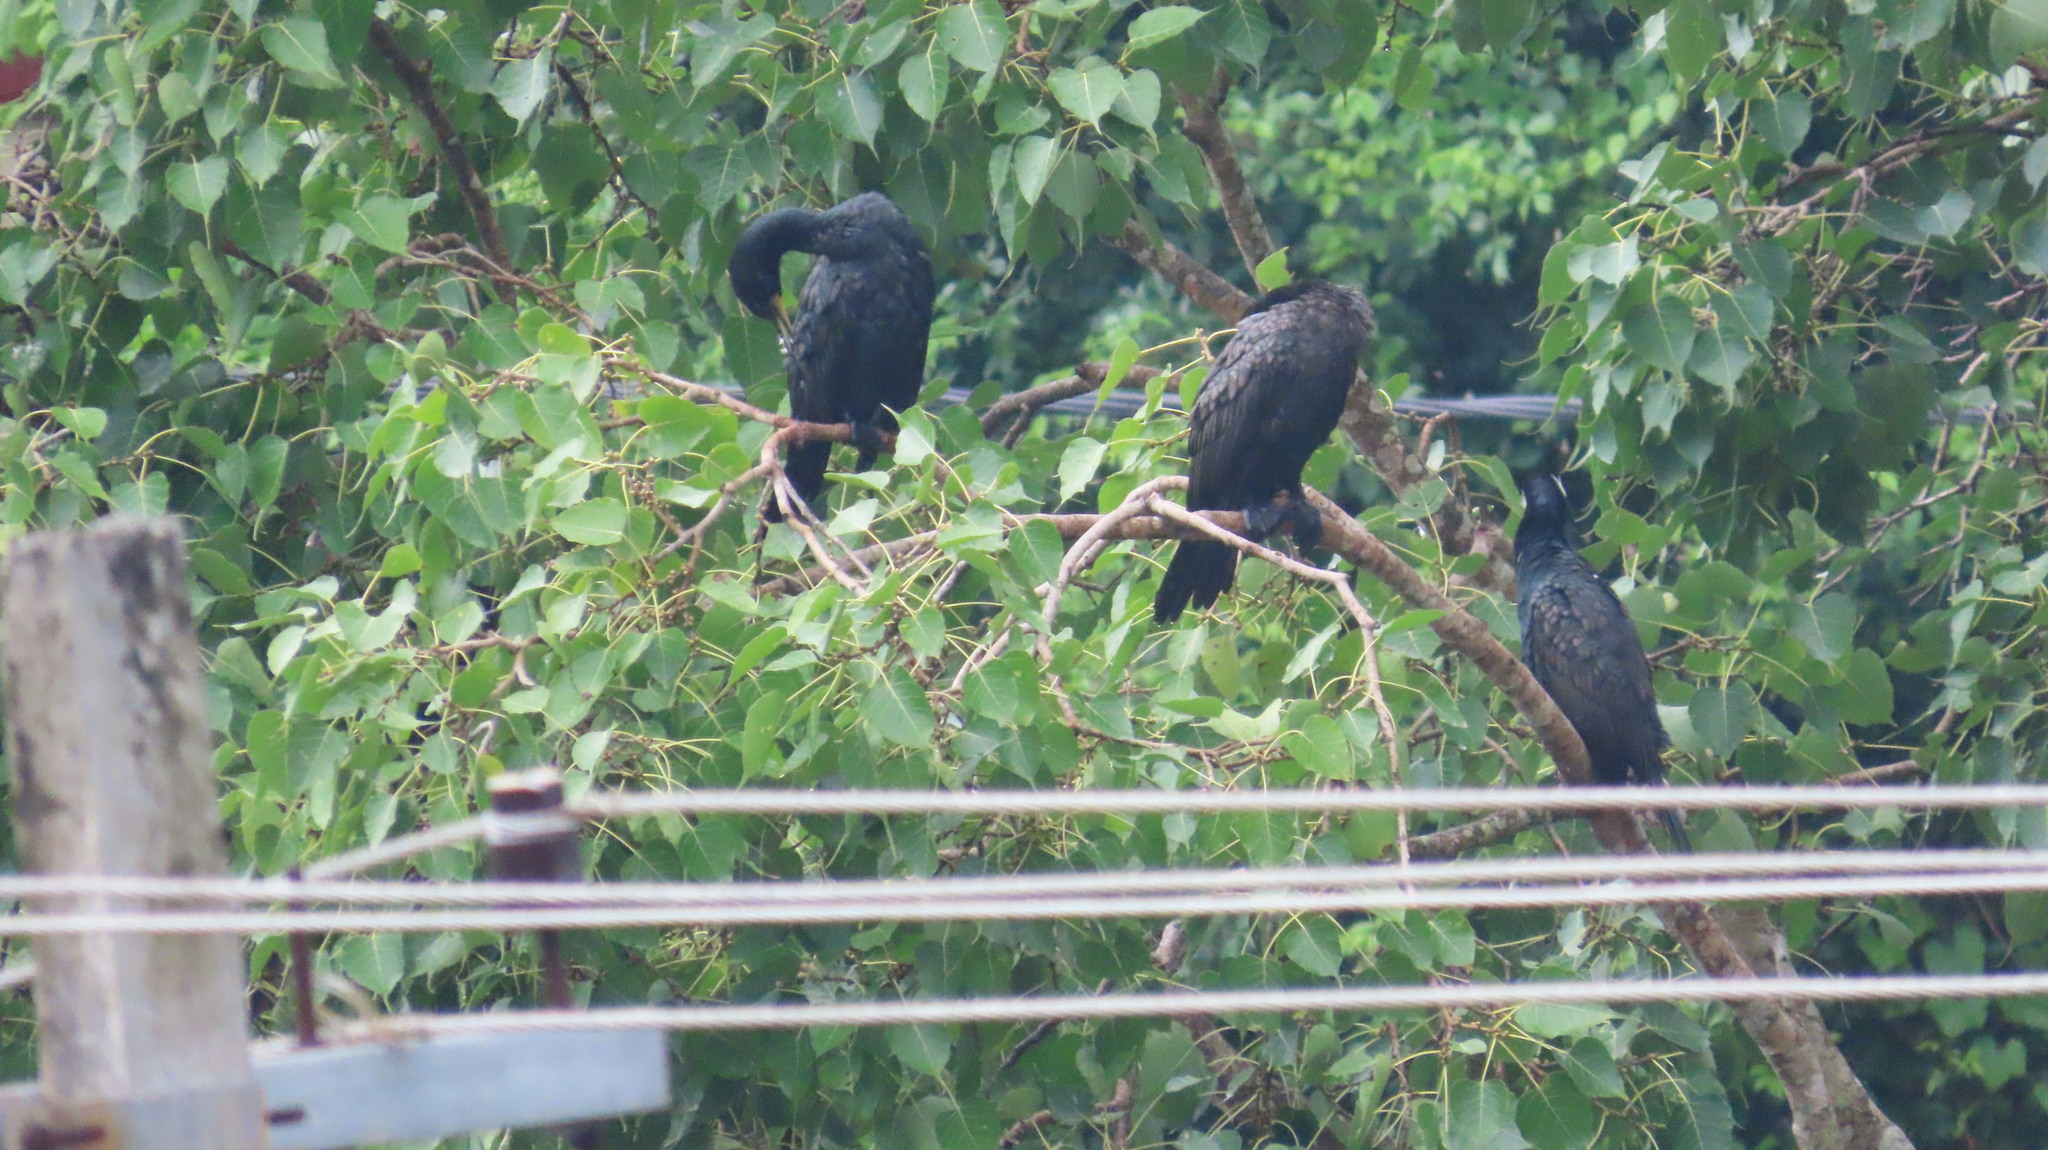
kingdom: Animalia
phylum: Chordata
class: Aves
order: Suliformes
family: Phalacrocoracidae
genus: Phalacrocorax
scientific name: Phalacrocorax fuscicollis
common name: Indian cormorant
